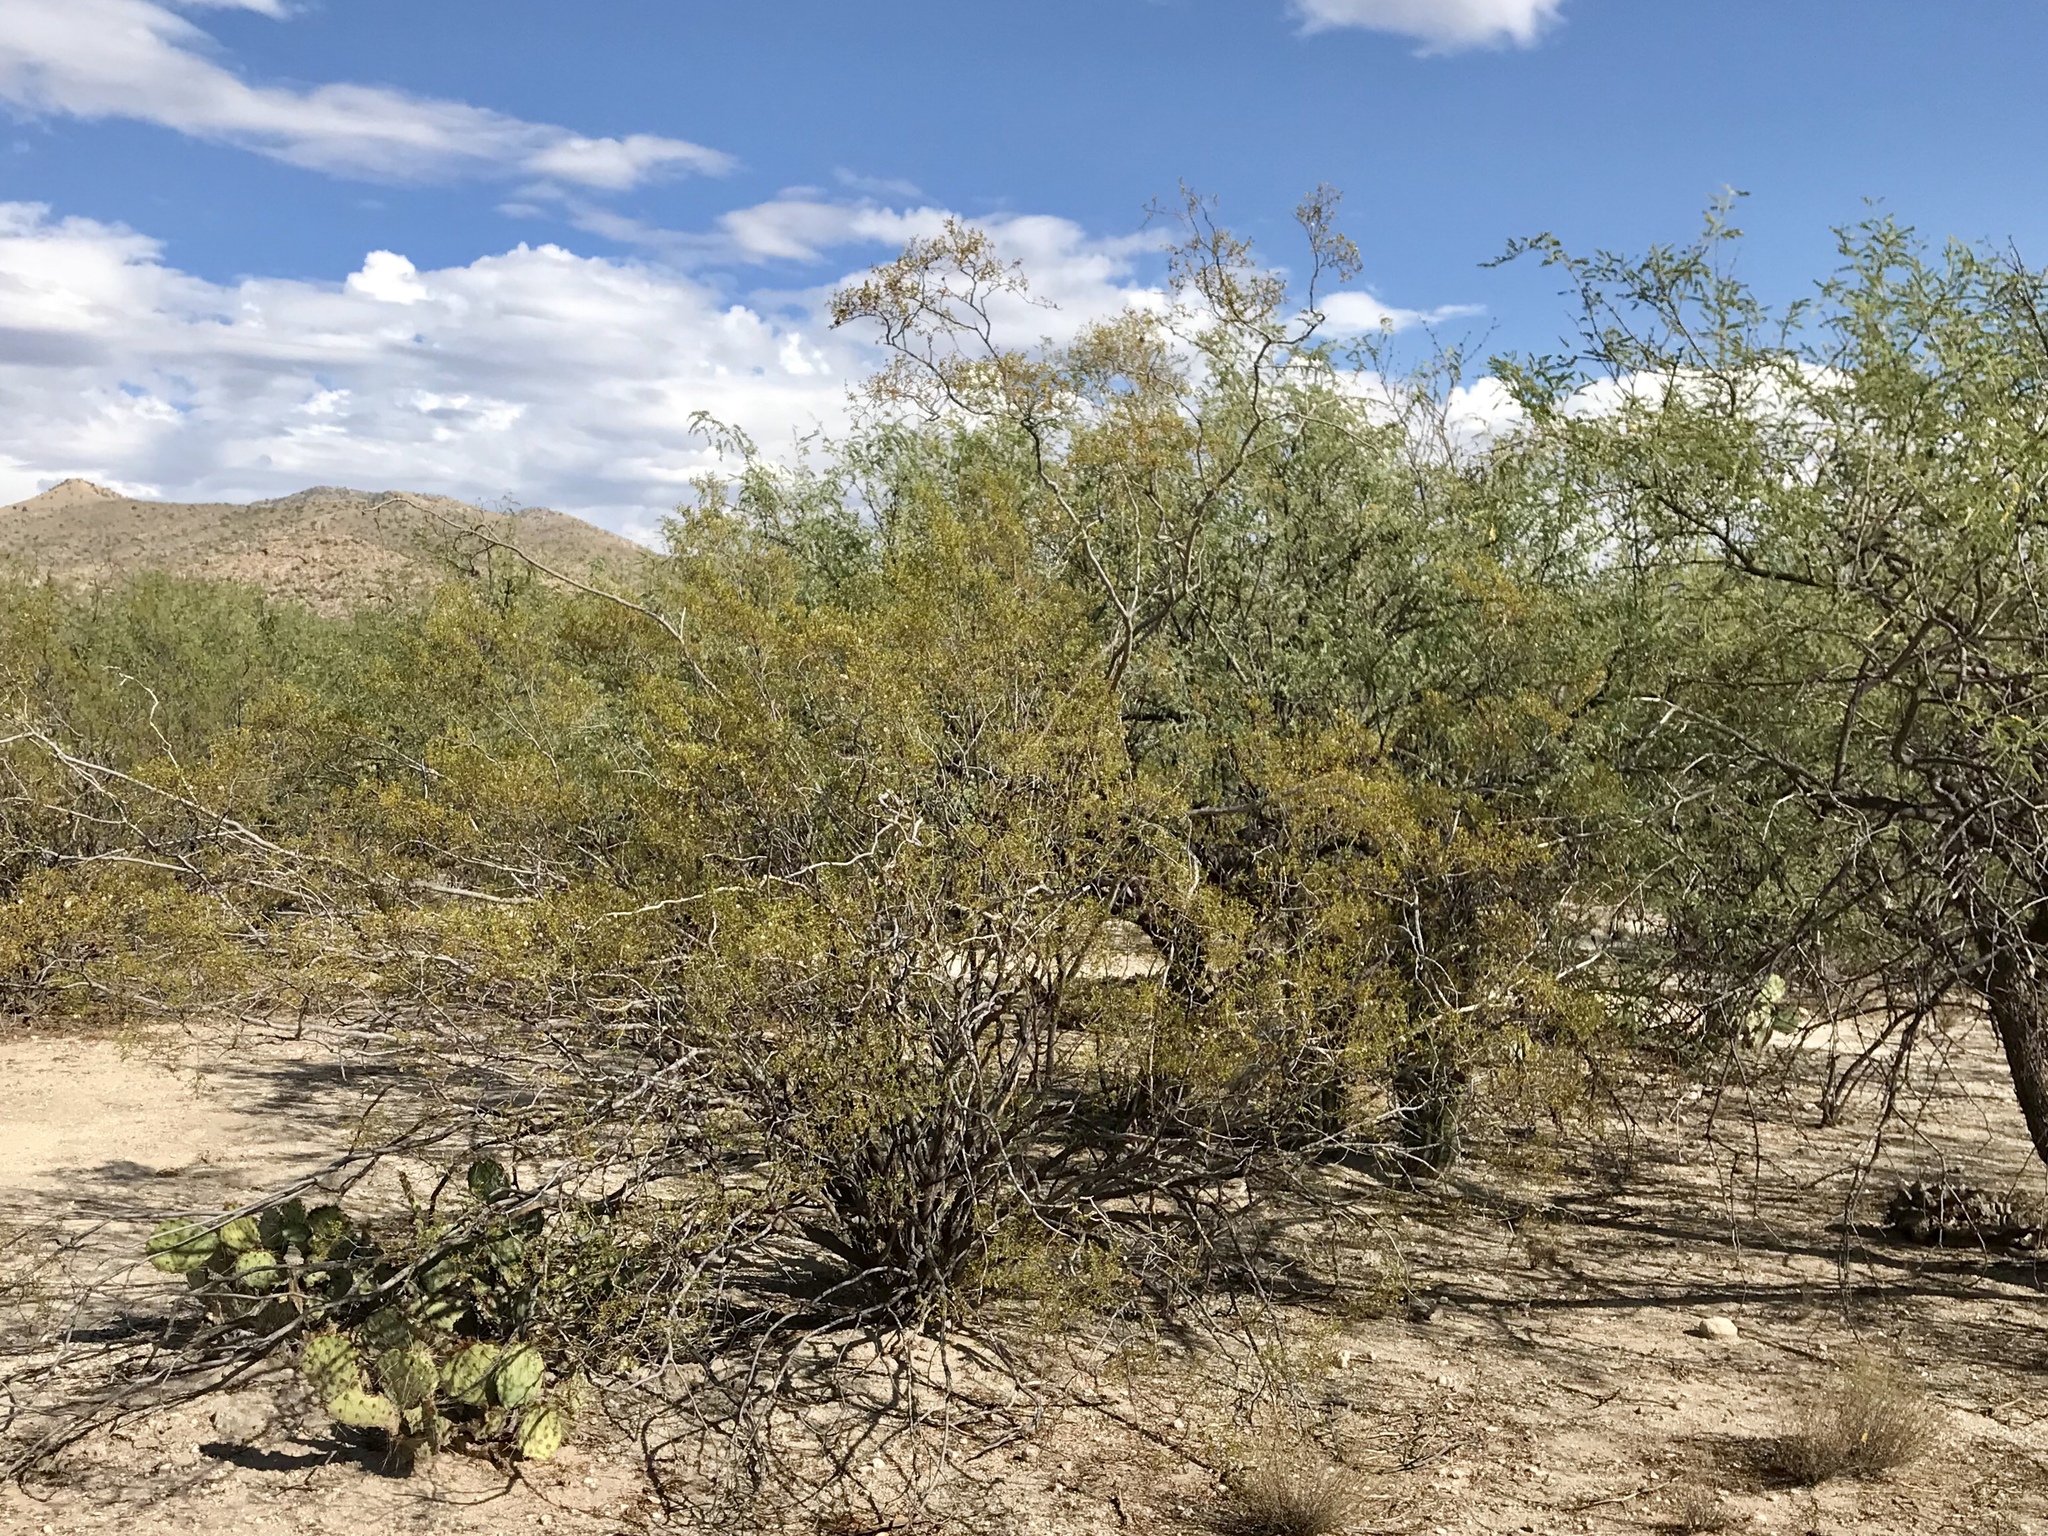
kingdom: Plantae
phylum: Tracheophyta
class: Magnoliopsida
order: Zygophyllales
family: Zygophyllaceae
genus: Larrea
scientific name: Larrea tridentata
